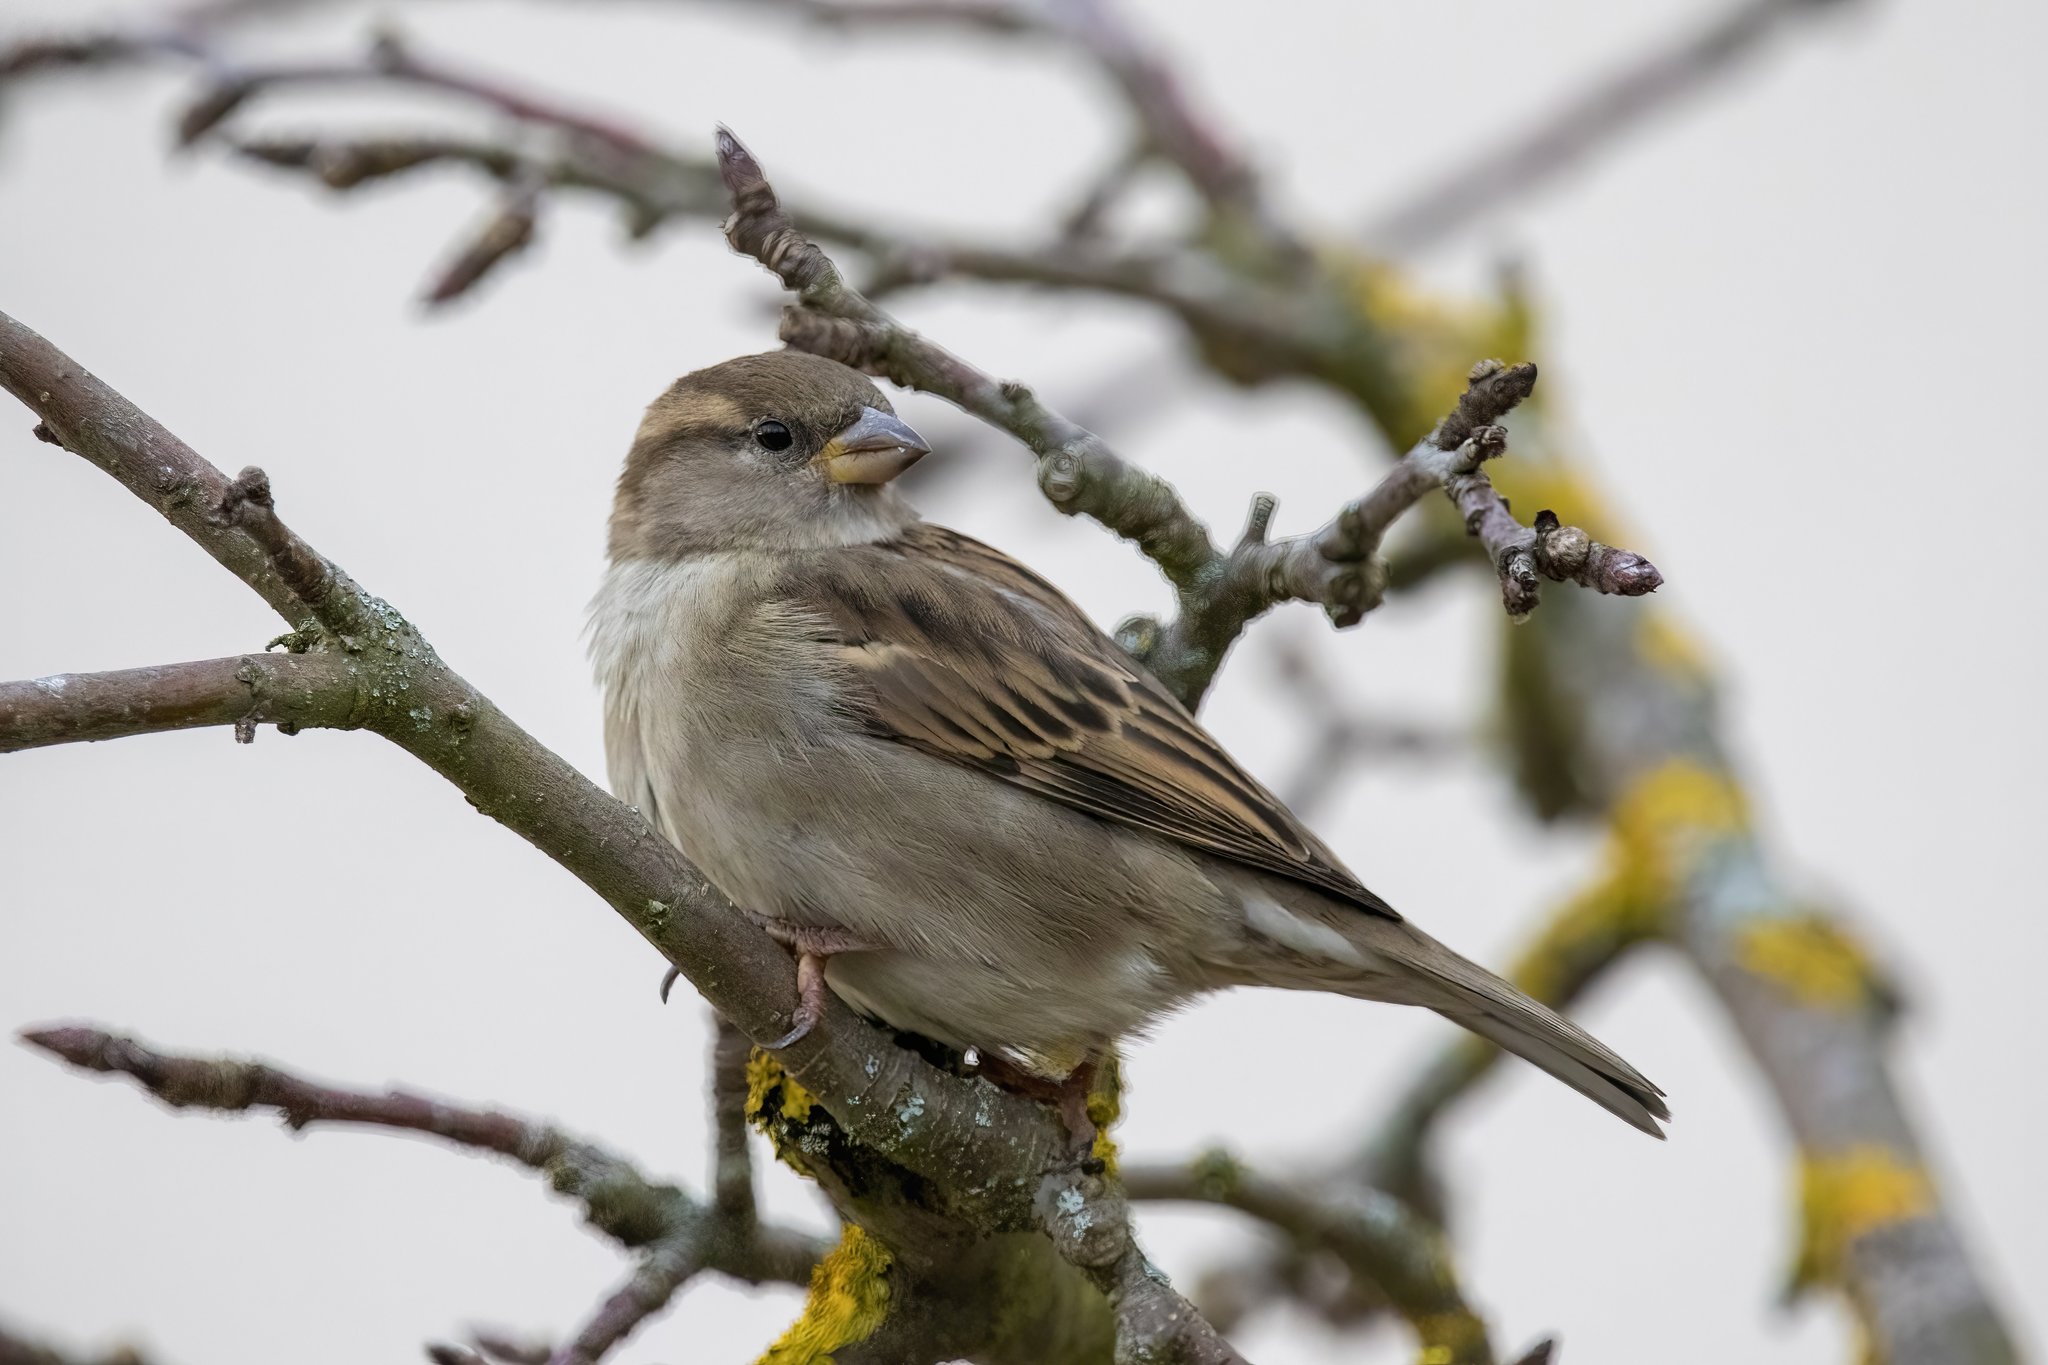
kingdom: Animalia
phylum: Chordata
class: Aves
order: Passeriformes
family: Passeridae
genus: Passer
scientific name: Passer domesticus
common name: House sparrow
